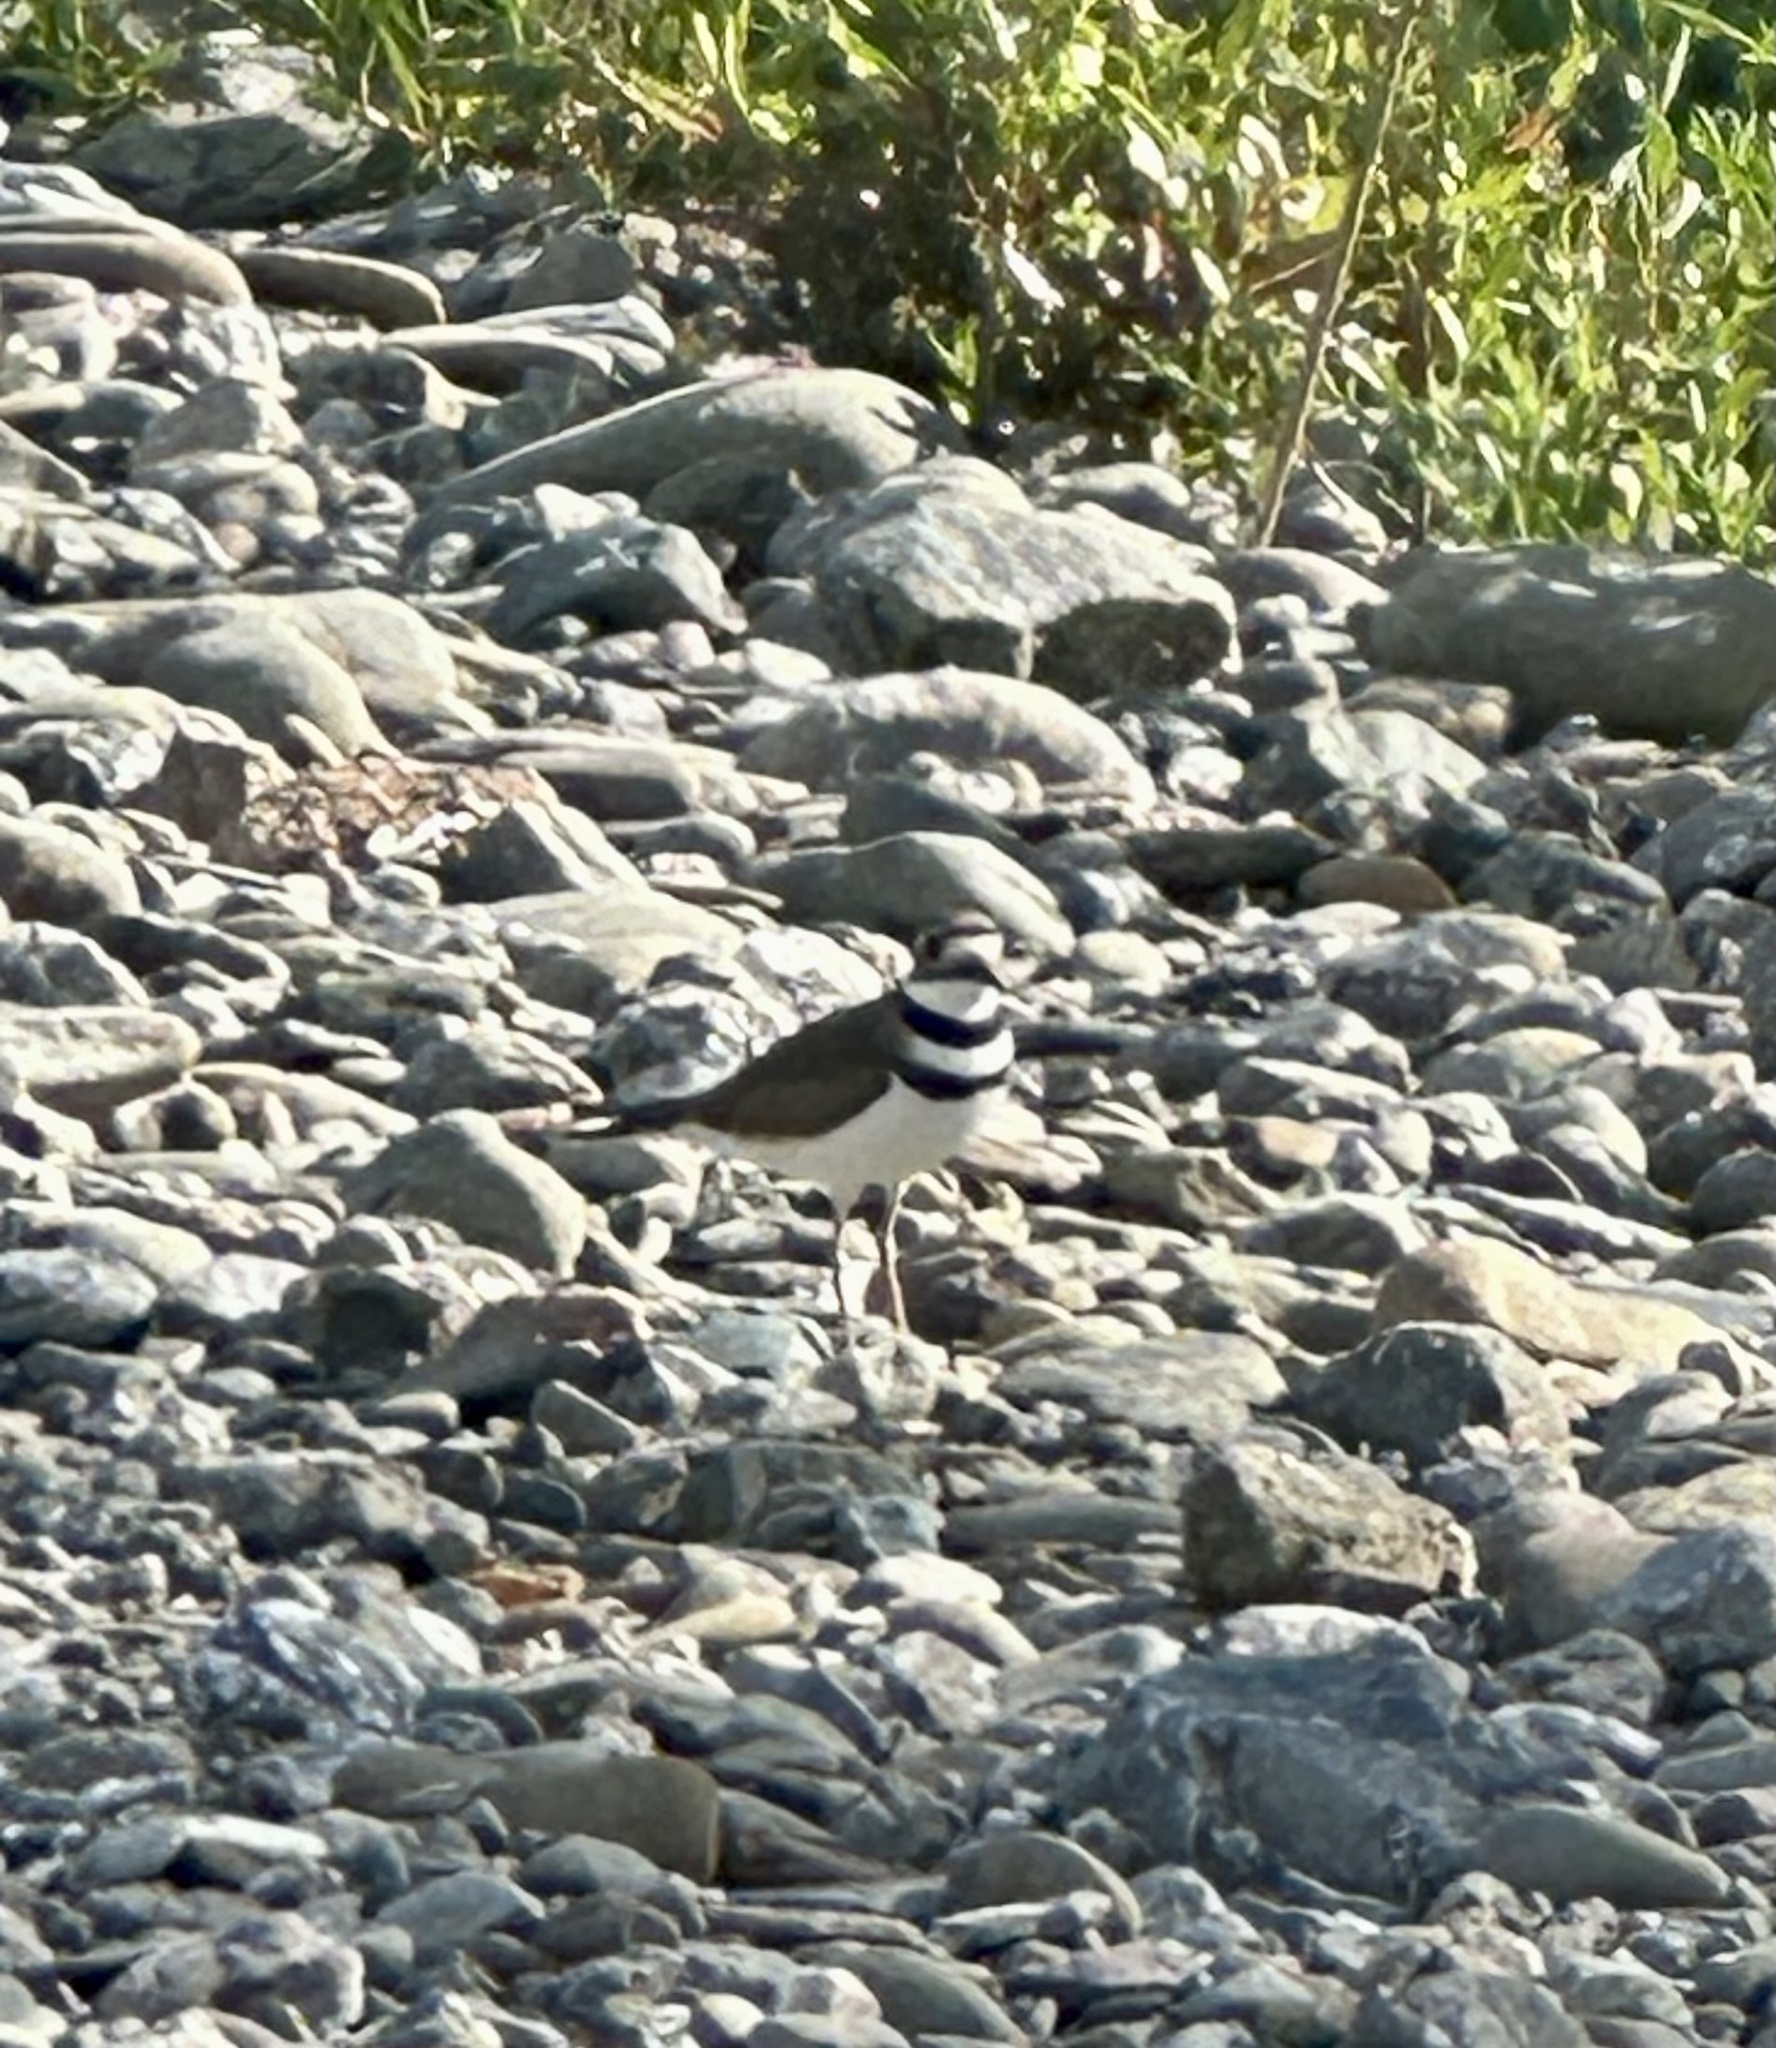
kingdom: Animalia
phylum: Chordata
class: Aves
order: Charadriiformes
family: Charadriidae
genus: Charadrius
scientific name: Charadrius vociferus
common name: Killdeer
